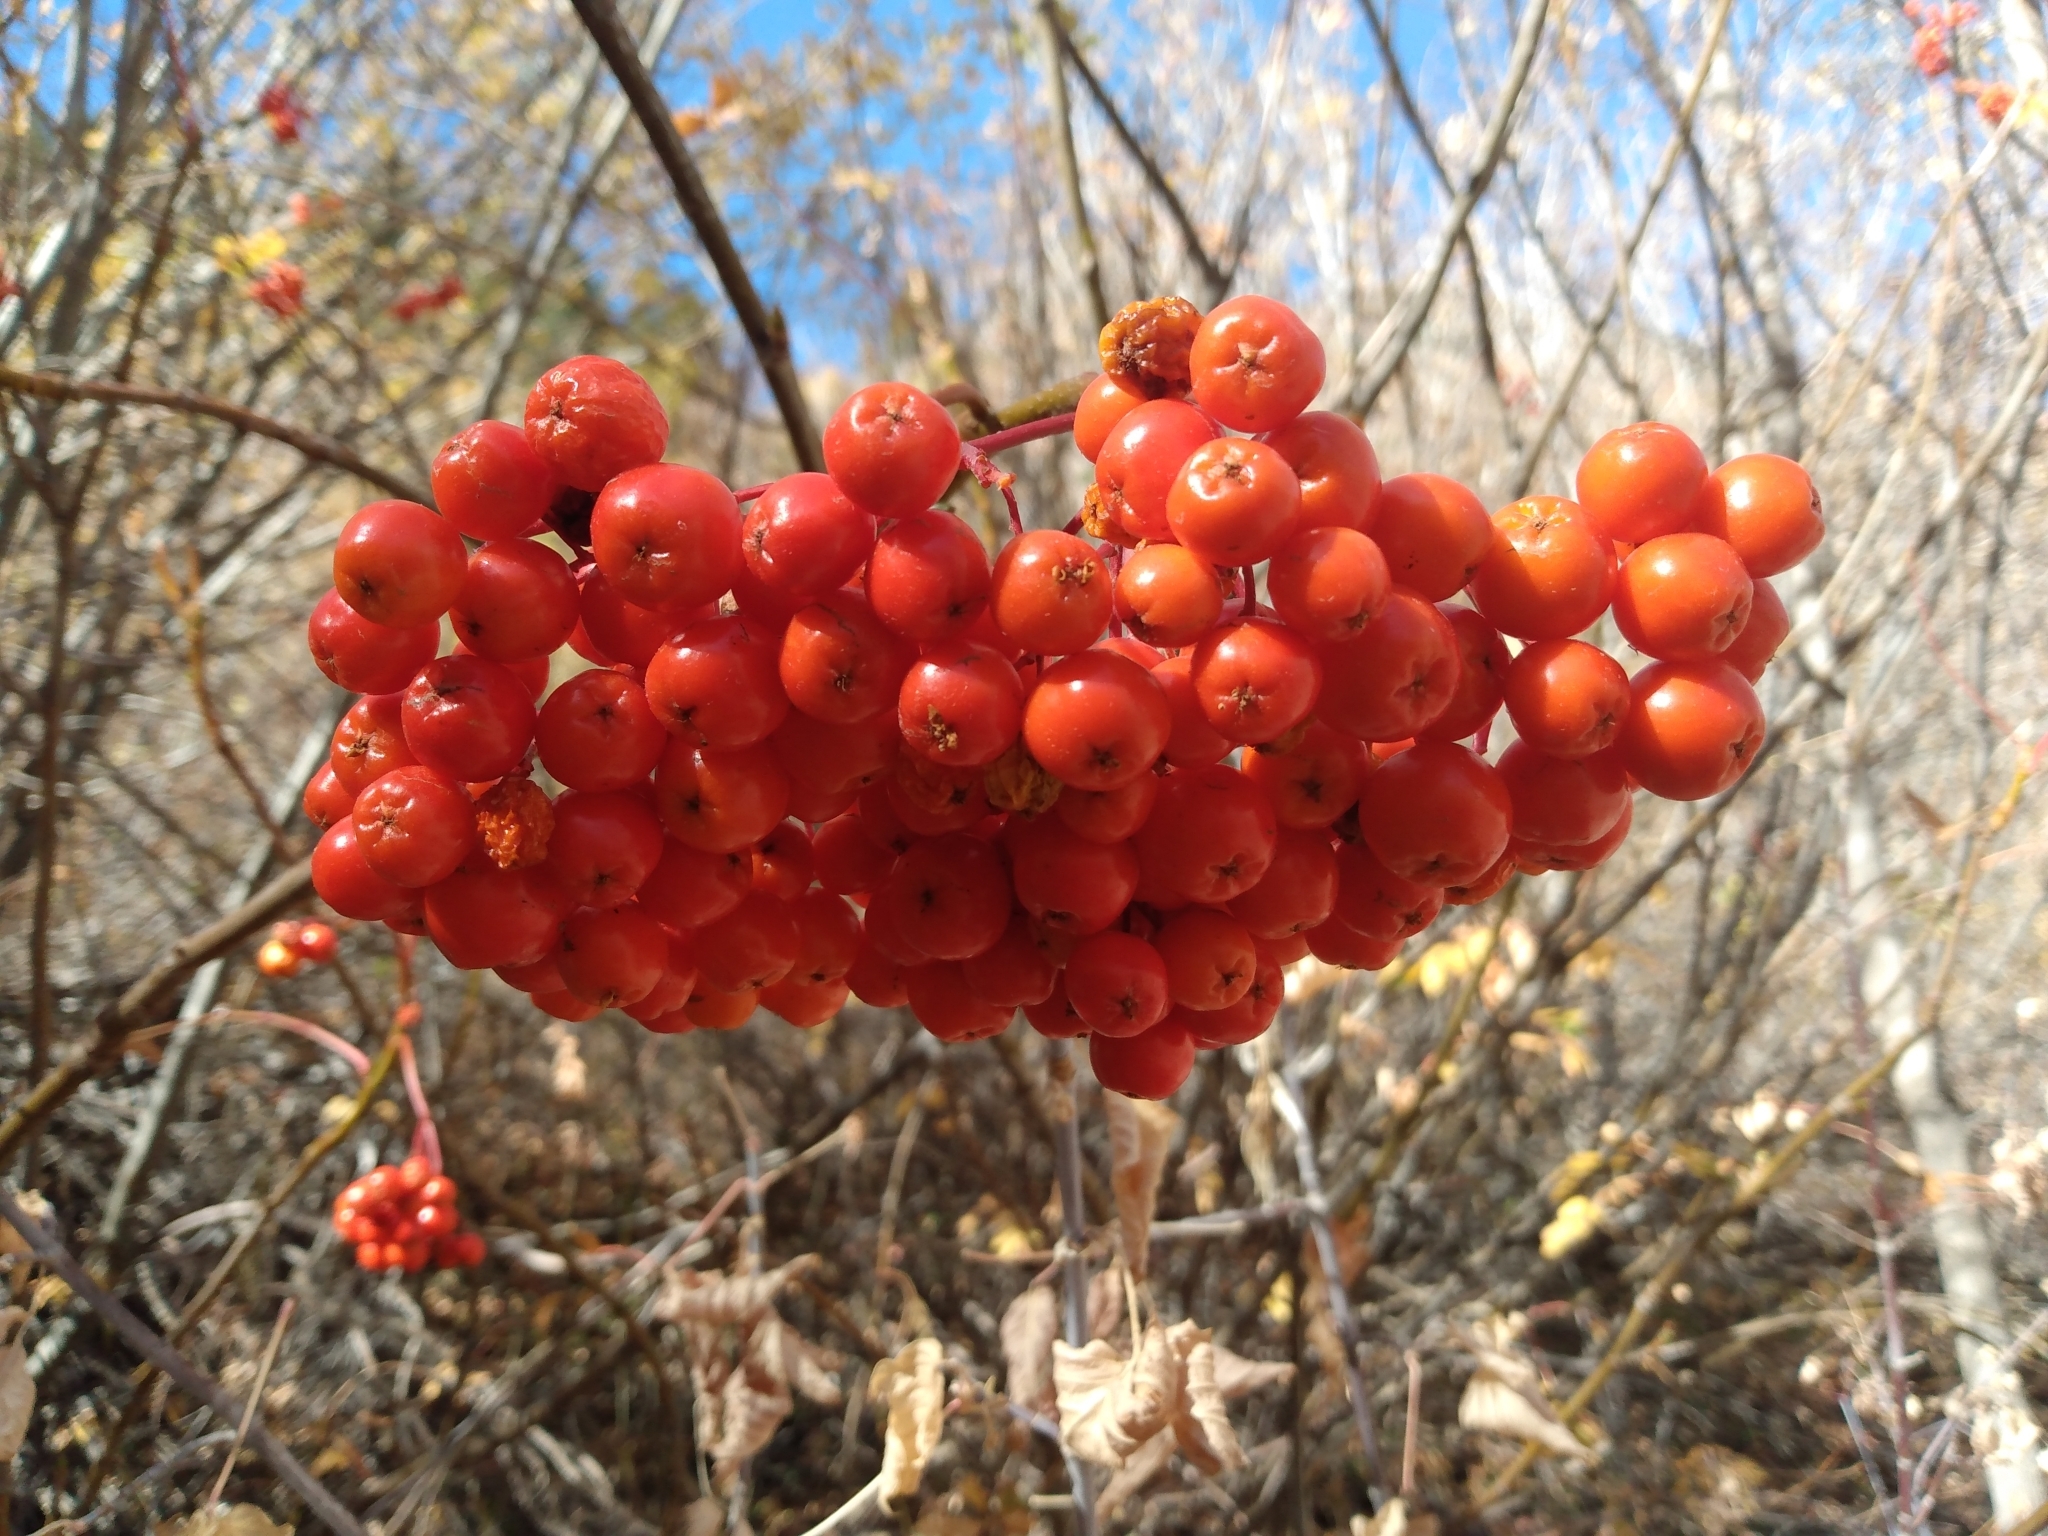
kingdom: Plantae
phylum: Tracheophyta
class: Magnoliopsida
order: Rosales
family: Rosaceae
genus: Sorbus
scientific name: Sorbus aucuparia
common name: Rowan
